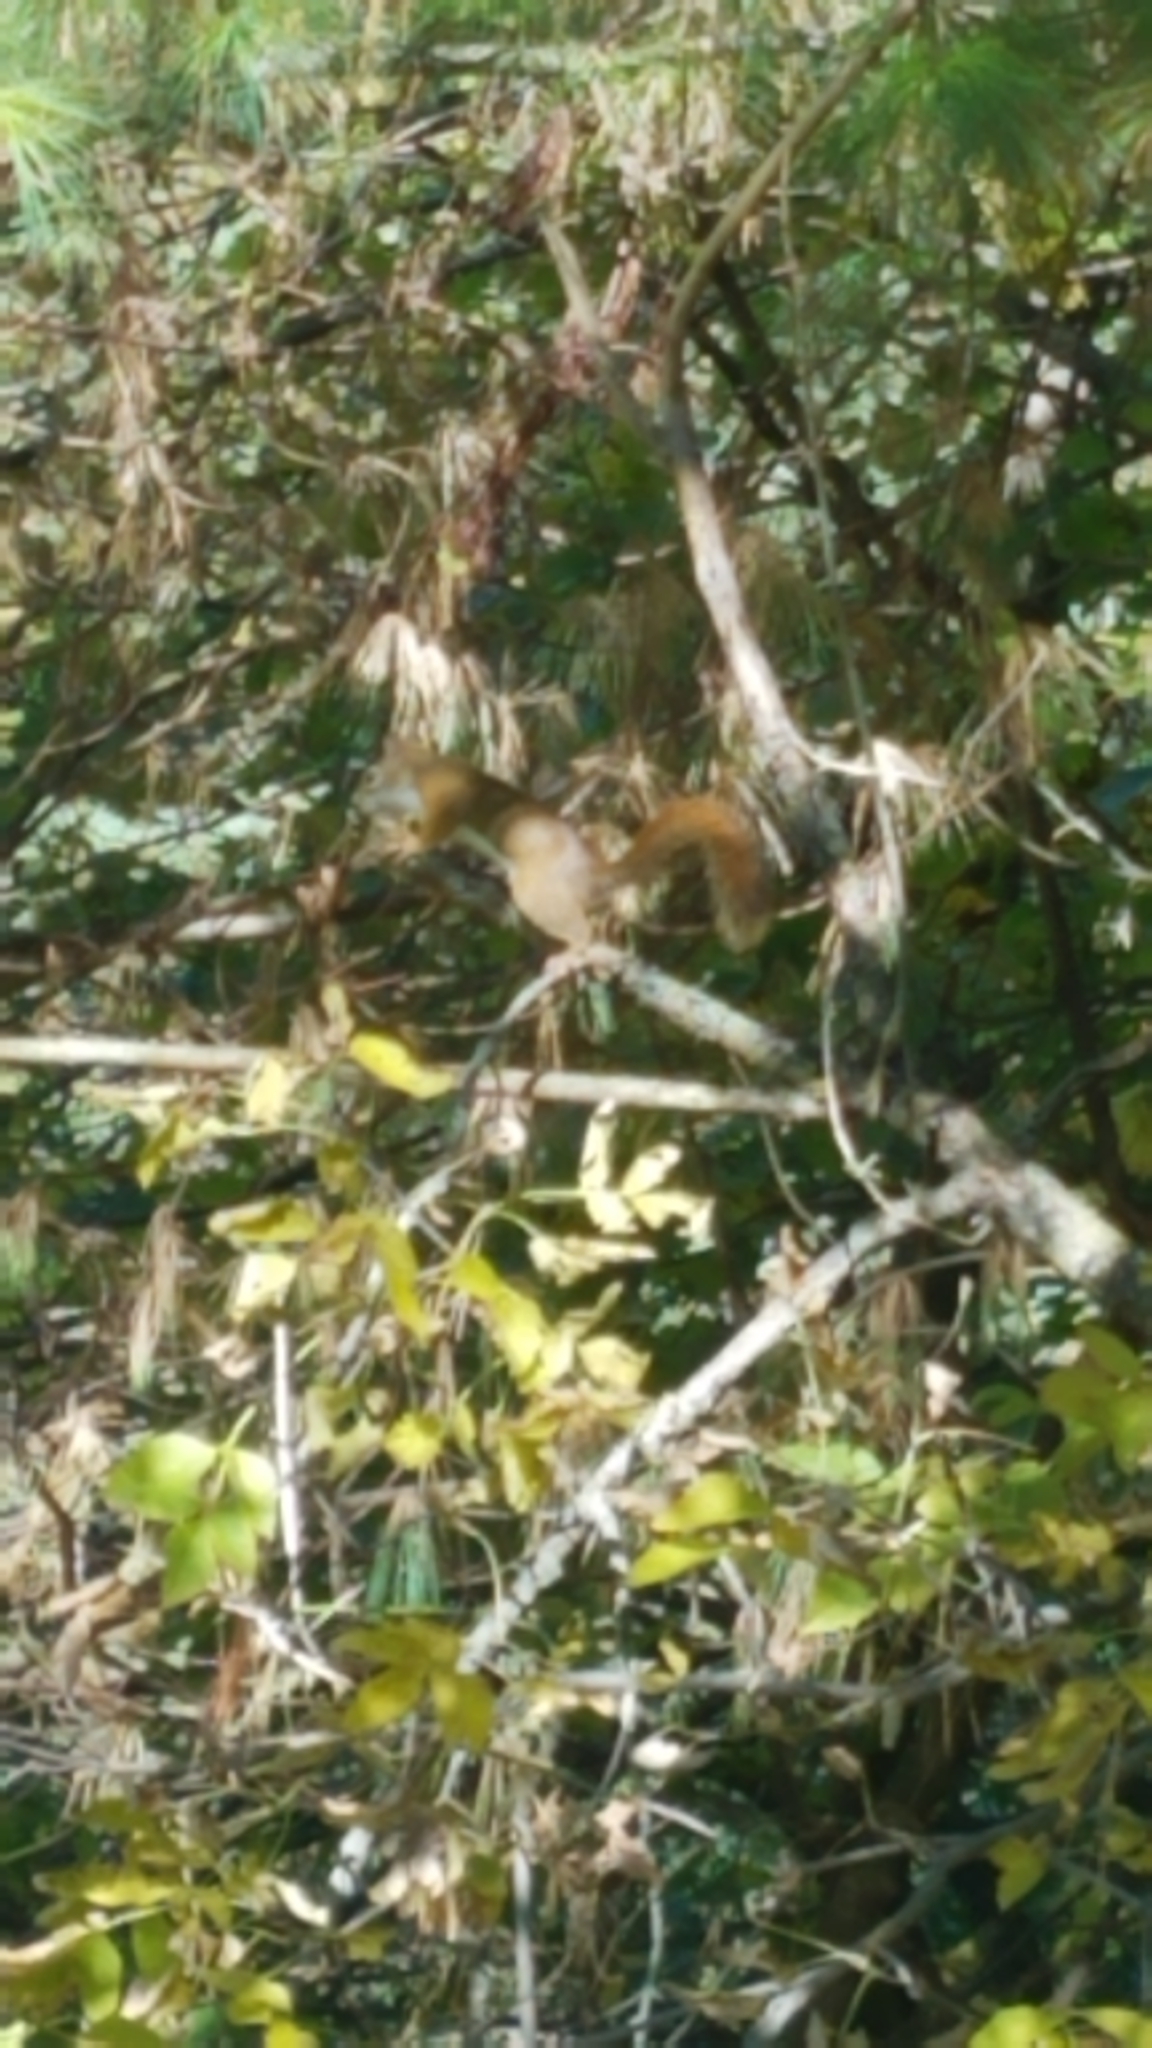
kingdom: Animalia
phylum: Chordata
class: Mammalia
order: Rodentia
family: Sciuridae
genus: Tamiasciurus
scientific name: Tamiasciurus hudsonicus
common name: Red squirrel
